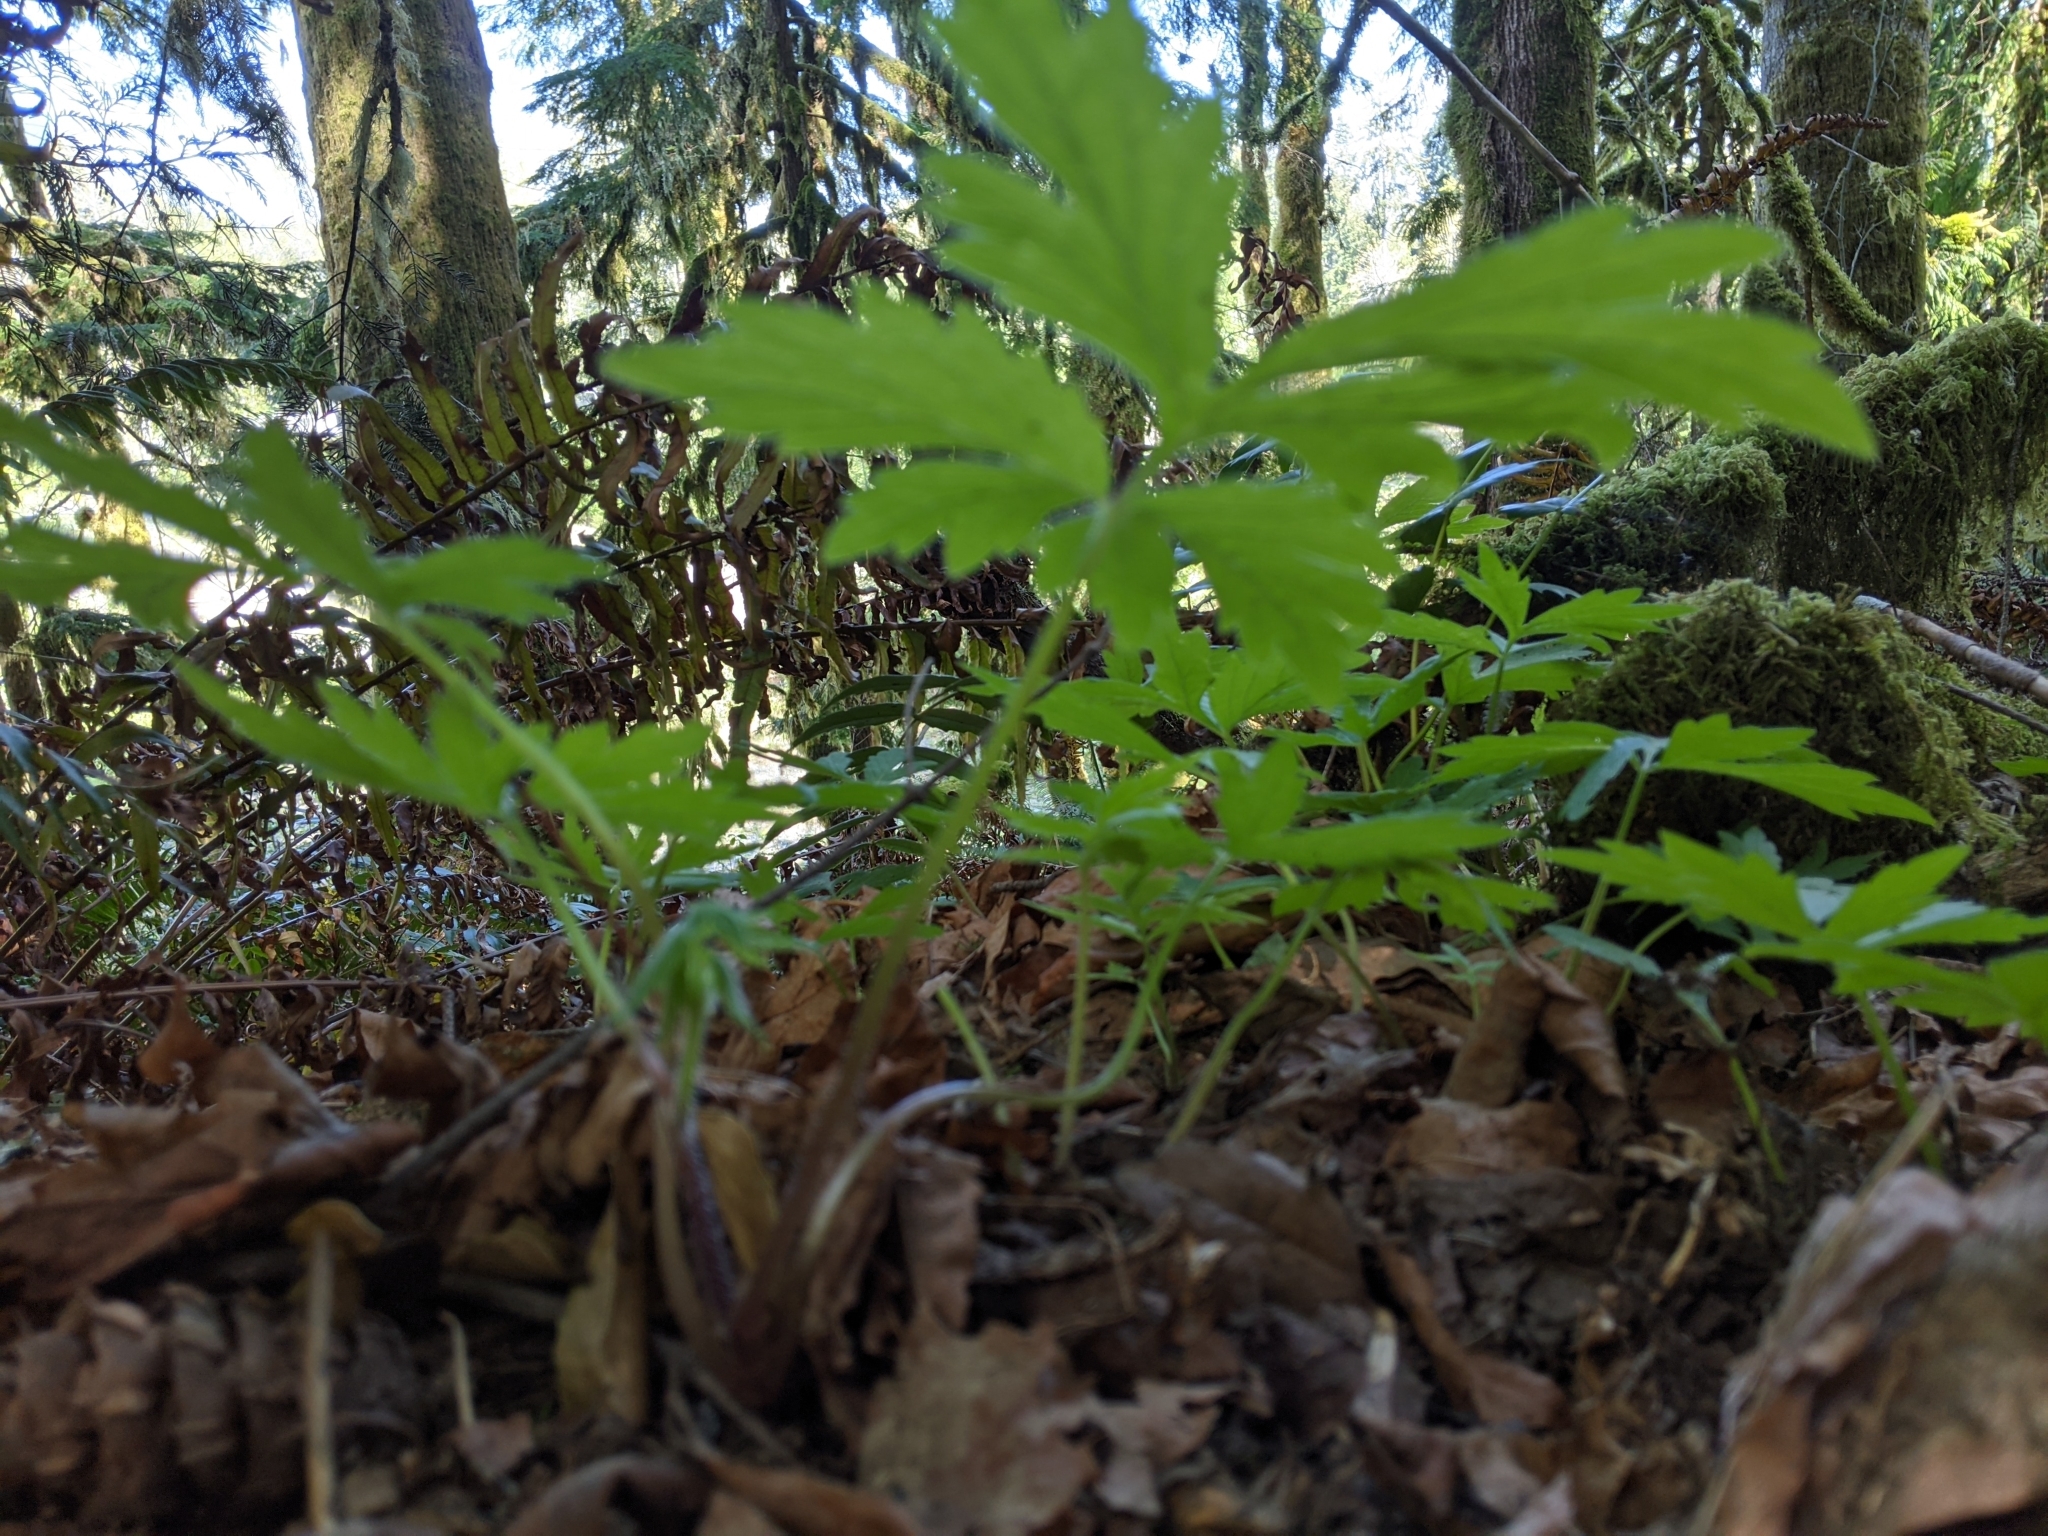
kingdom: Plantae
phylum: Tracheophyta
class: Magnoliopsida
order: Boraginales
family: Hydrophyllaceae
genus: Hydrophyllum
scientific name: Hydrophyllum tenuipes
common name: Pacific waterleaf
